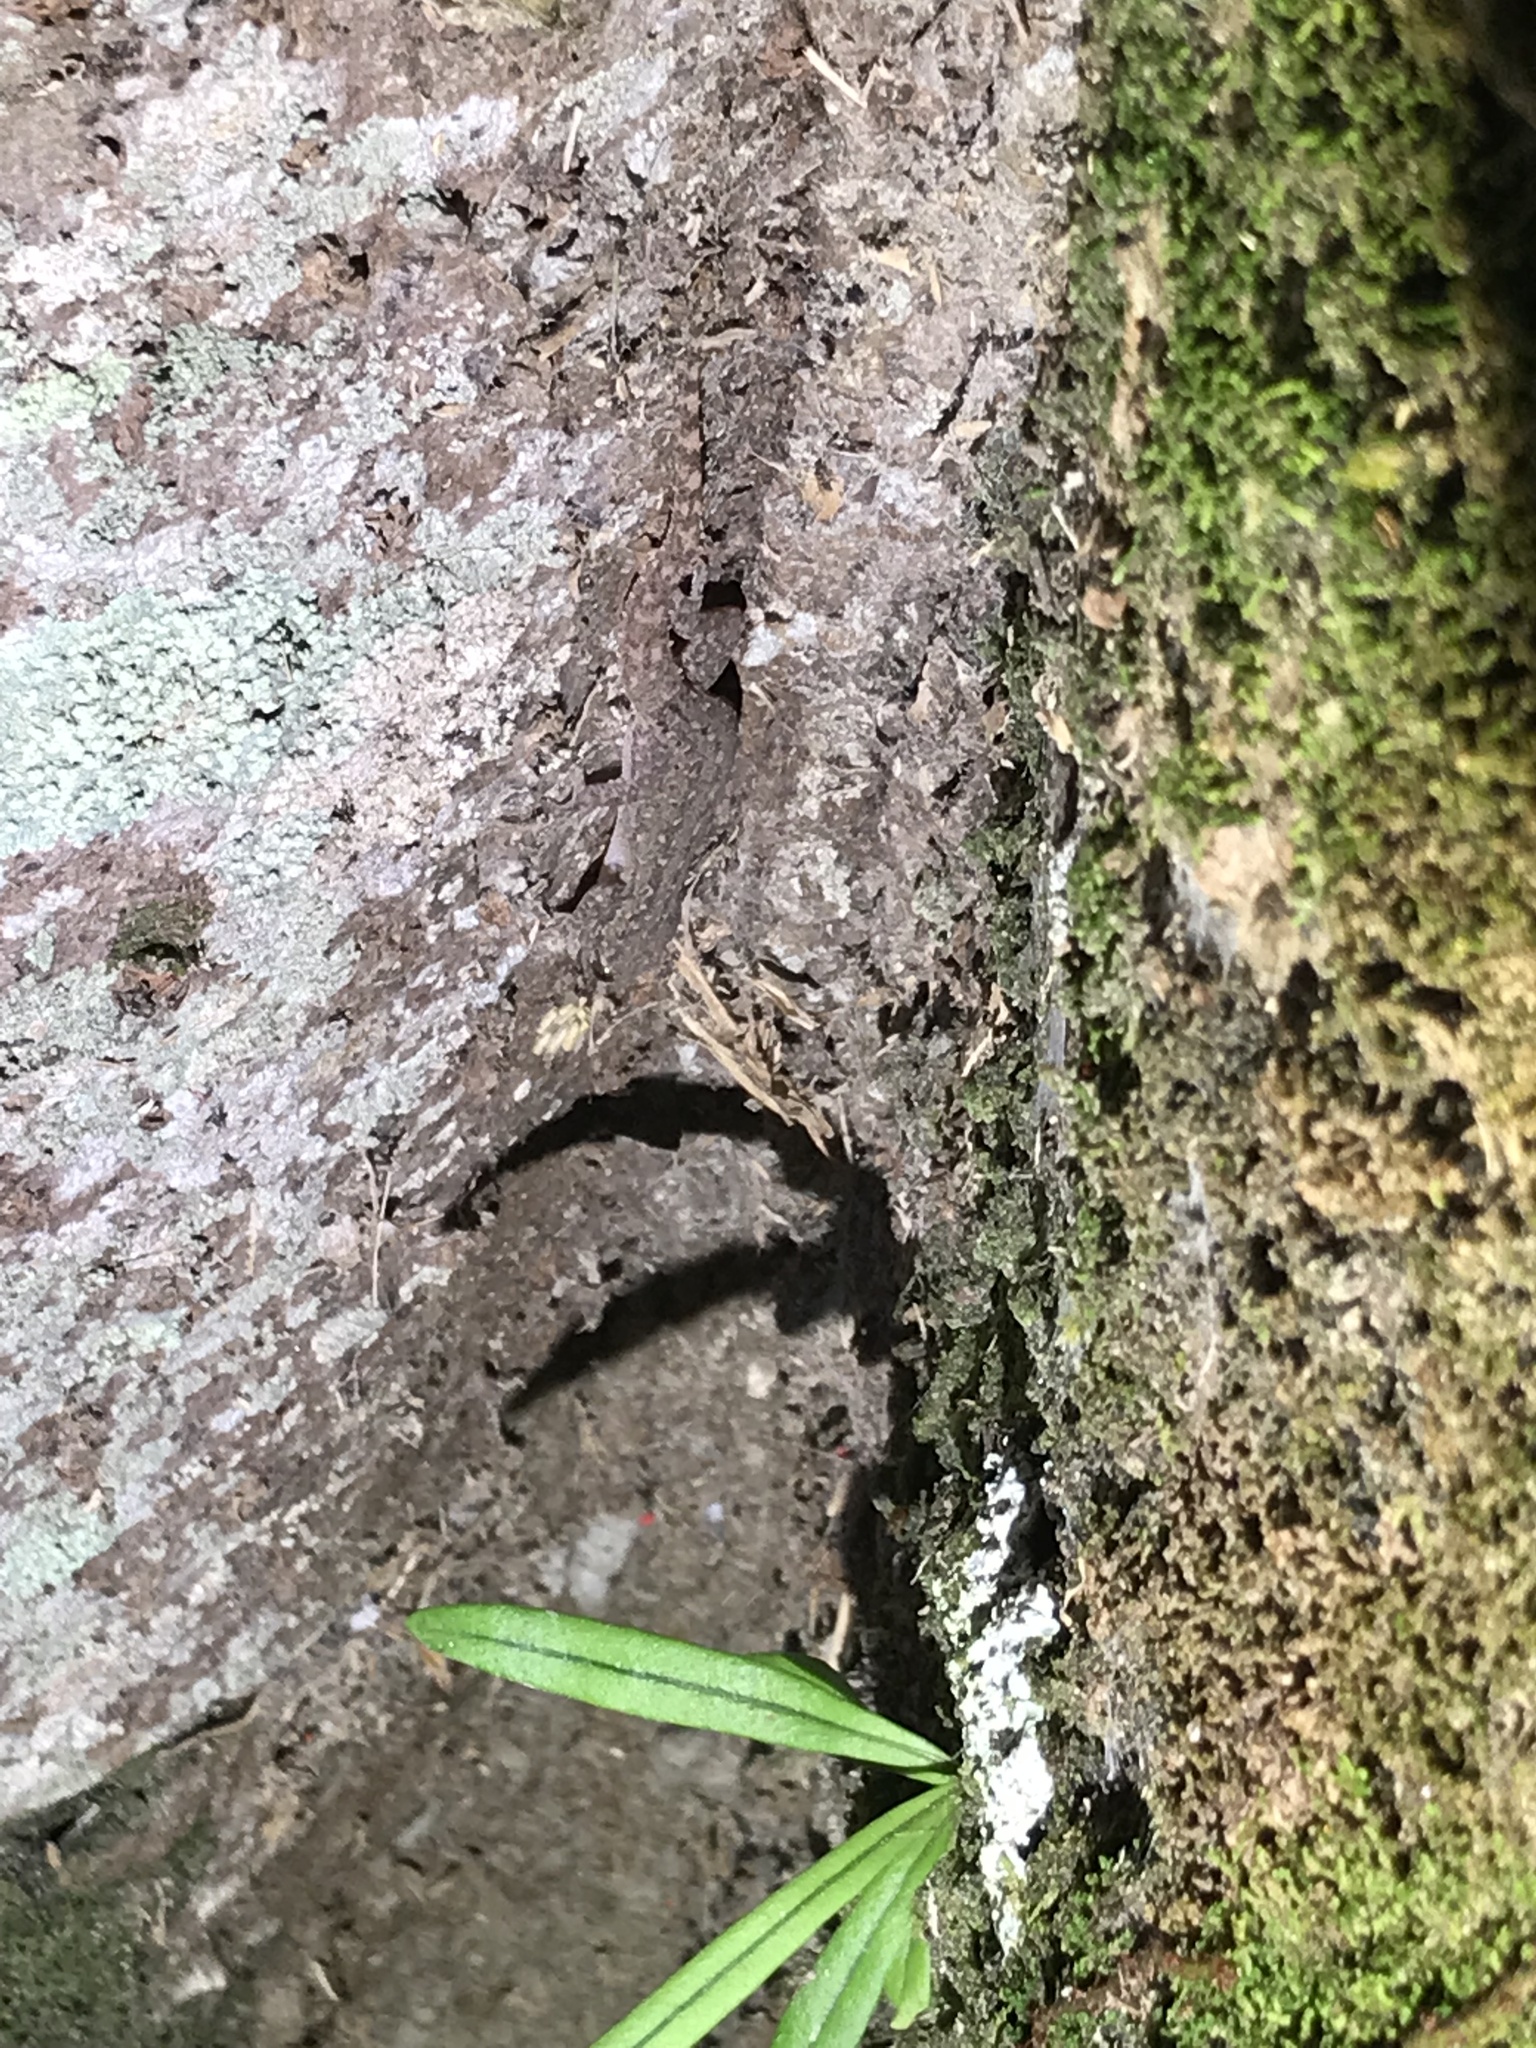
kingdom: Animalia
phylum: Chordata
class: Squamata
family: Gekkonidae
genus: Hemidactylus
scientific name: Hemidactylus frenatus
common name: Common house gecko
